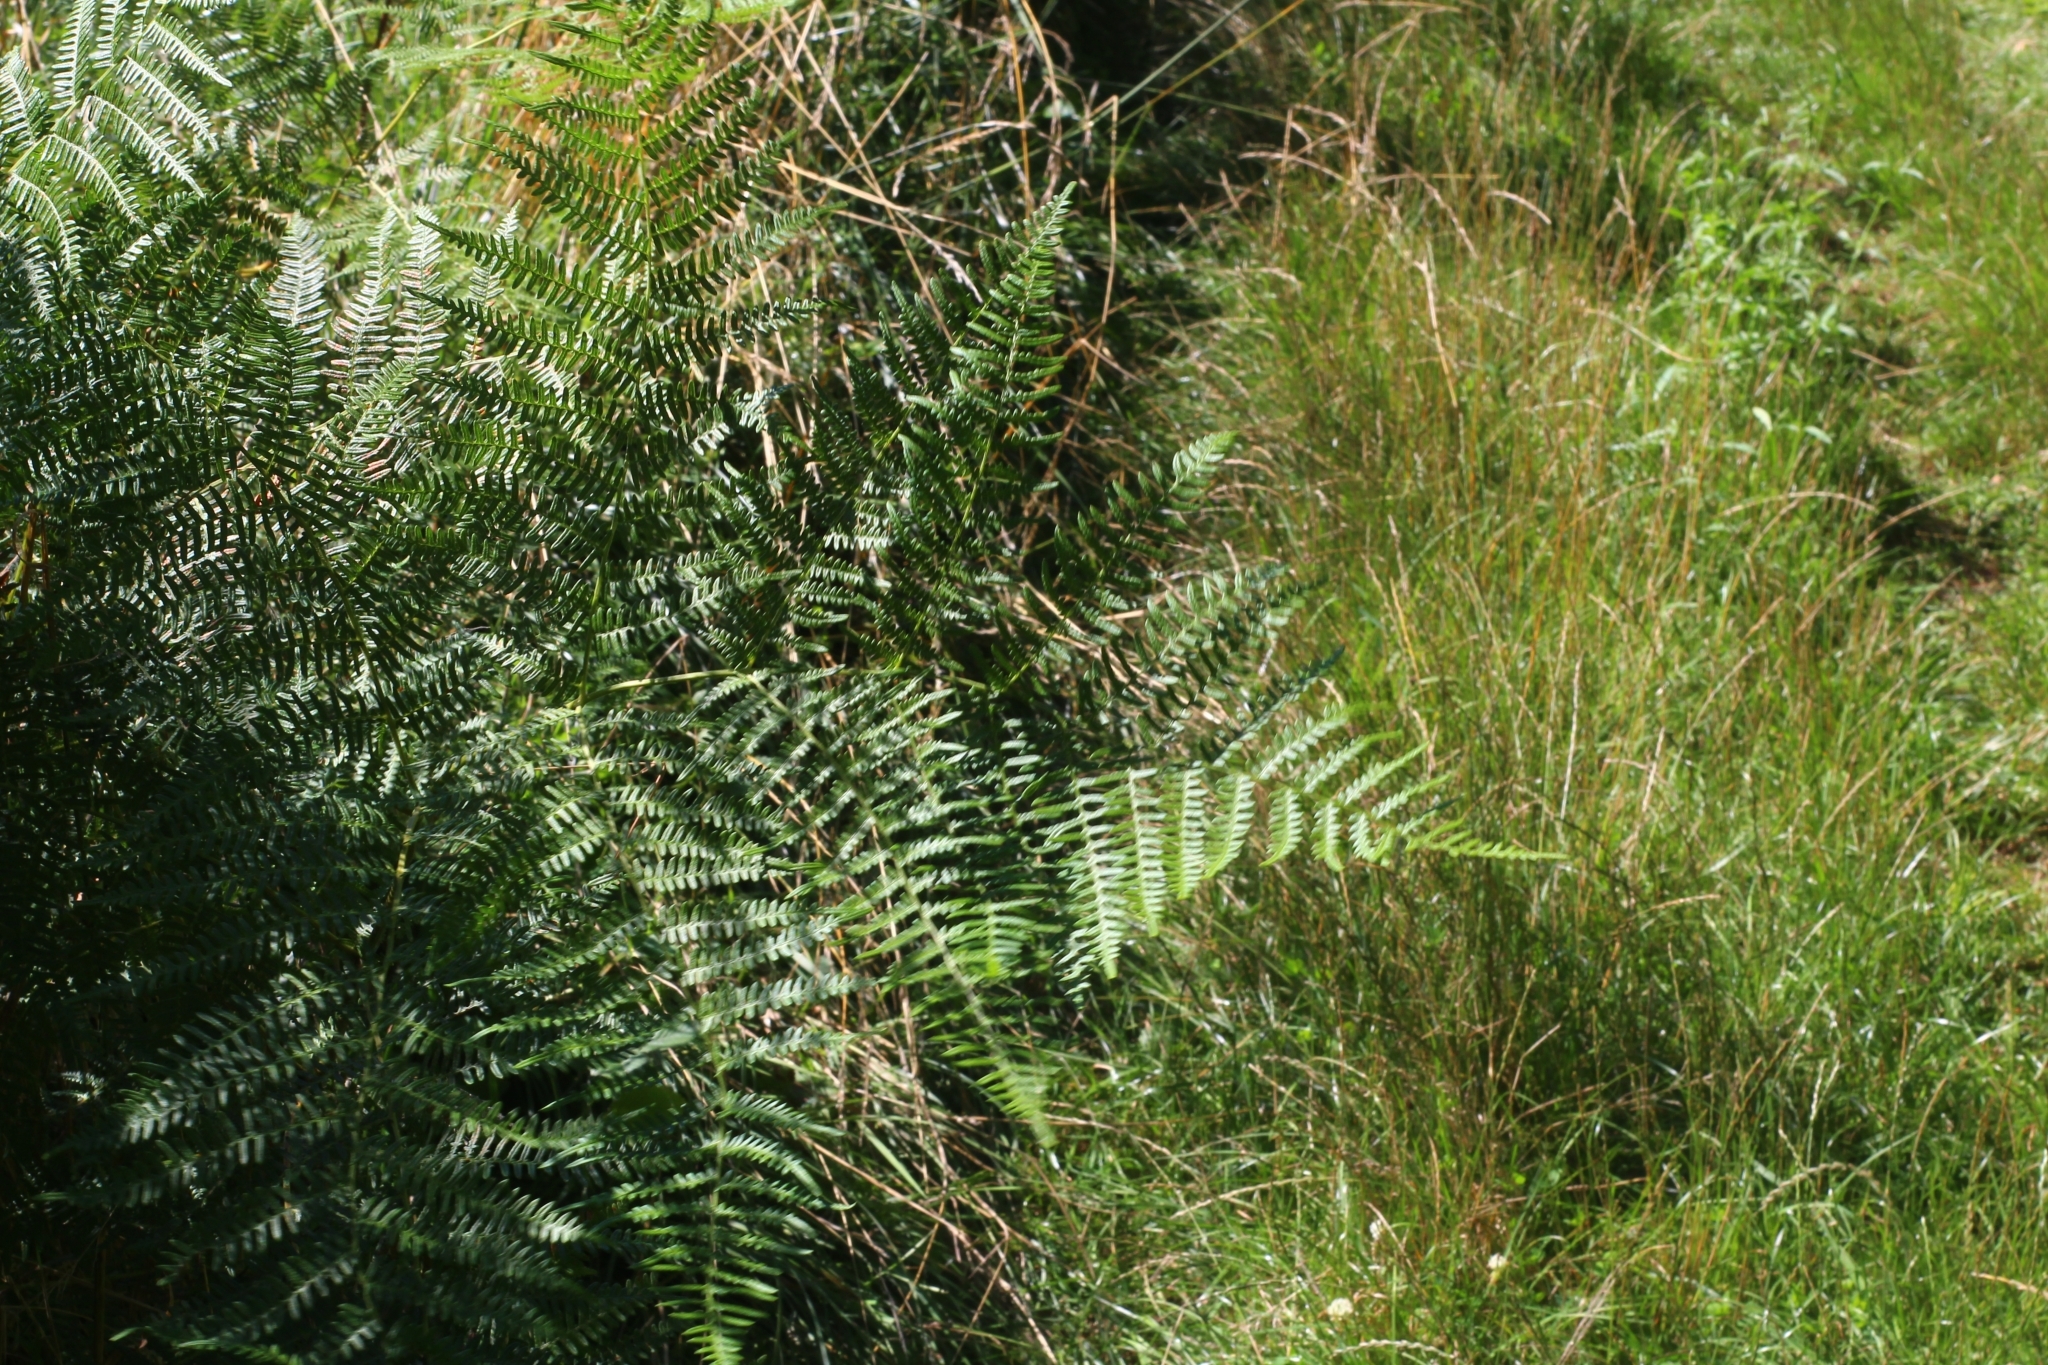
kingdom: Plantae
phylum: Tracheophyta
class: Polypodiopsida
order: Polypodiales
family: Dennstaedtiaceae
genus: Pteridium
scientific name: Pteridium aquilinum
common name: Bracken
